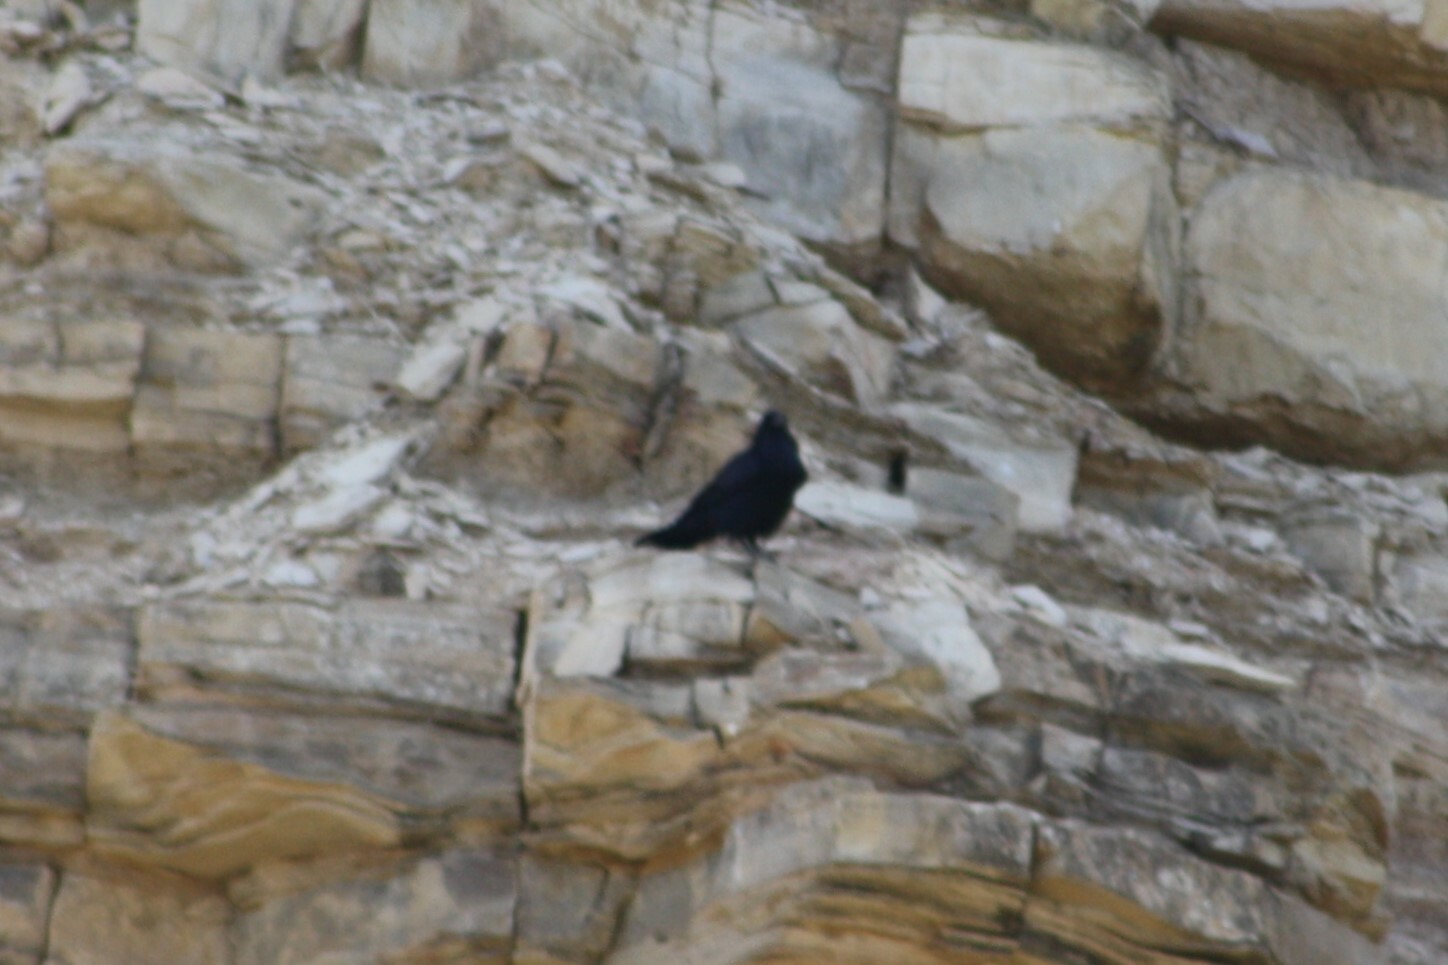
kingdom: Animalia
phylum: Chordata
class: Aves
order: Passeriformes
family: Corvidae
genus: Corvus
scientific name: Corvus corax
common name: Common raven
